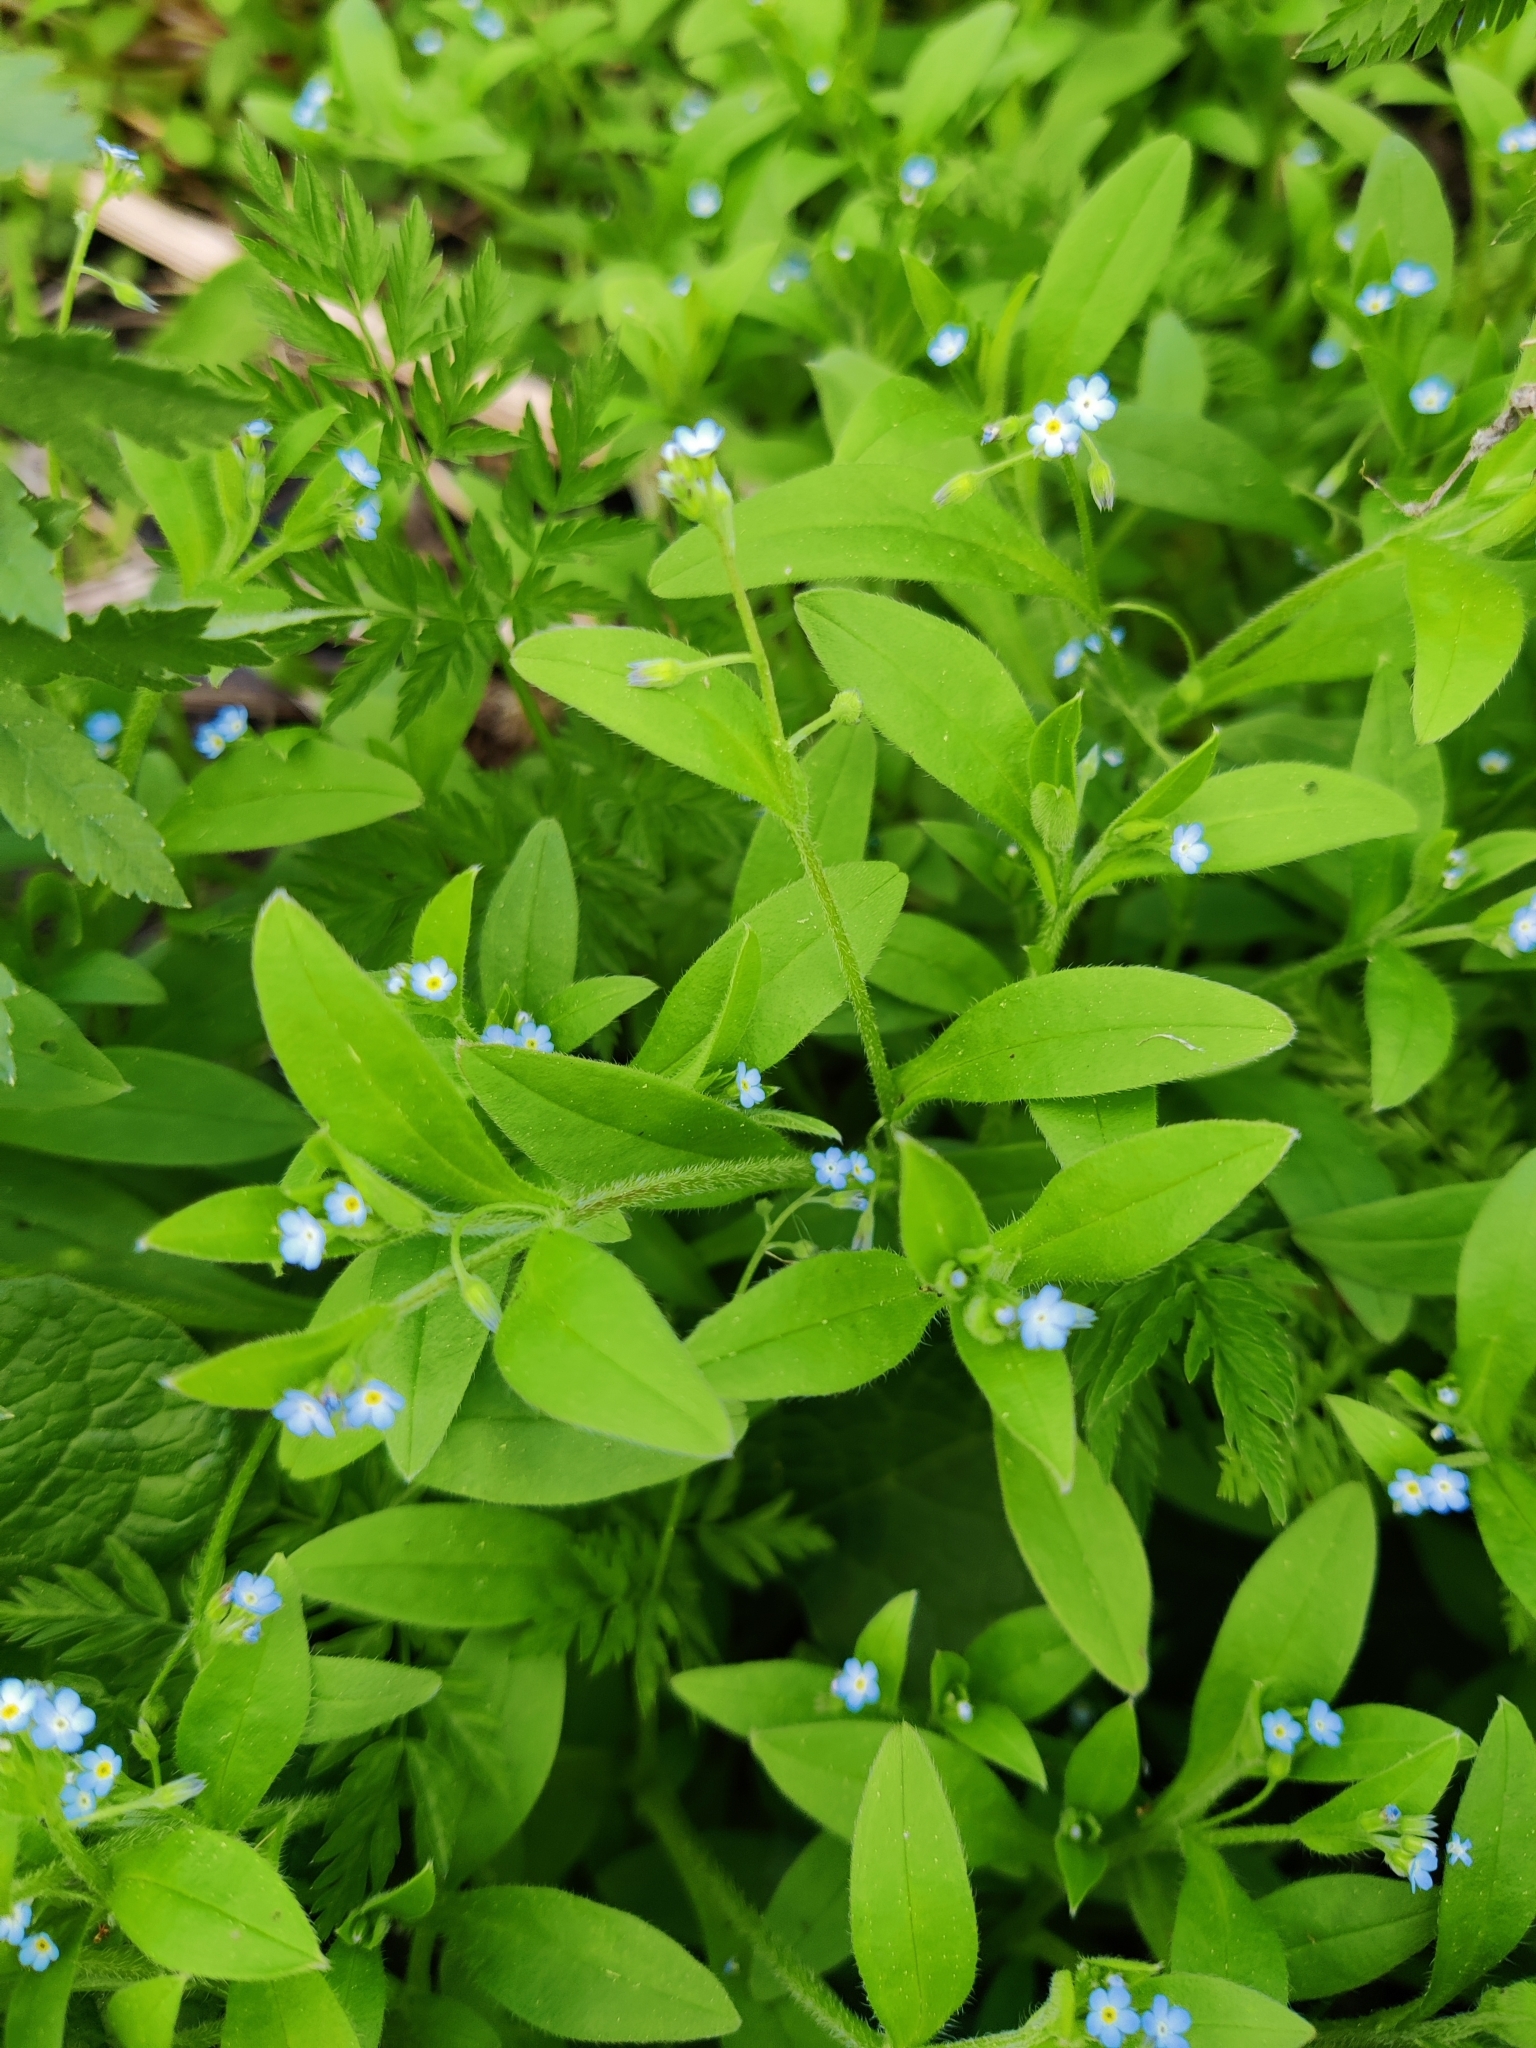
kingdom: Plantae
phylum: Tracheophyta
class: Magnoliopsida
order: Boraginales
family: Boraginaceae
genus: Myosotis
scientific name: Myosotis sparsiflora
